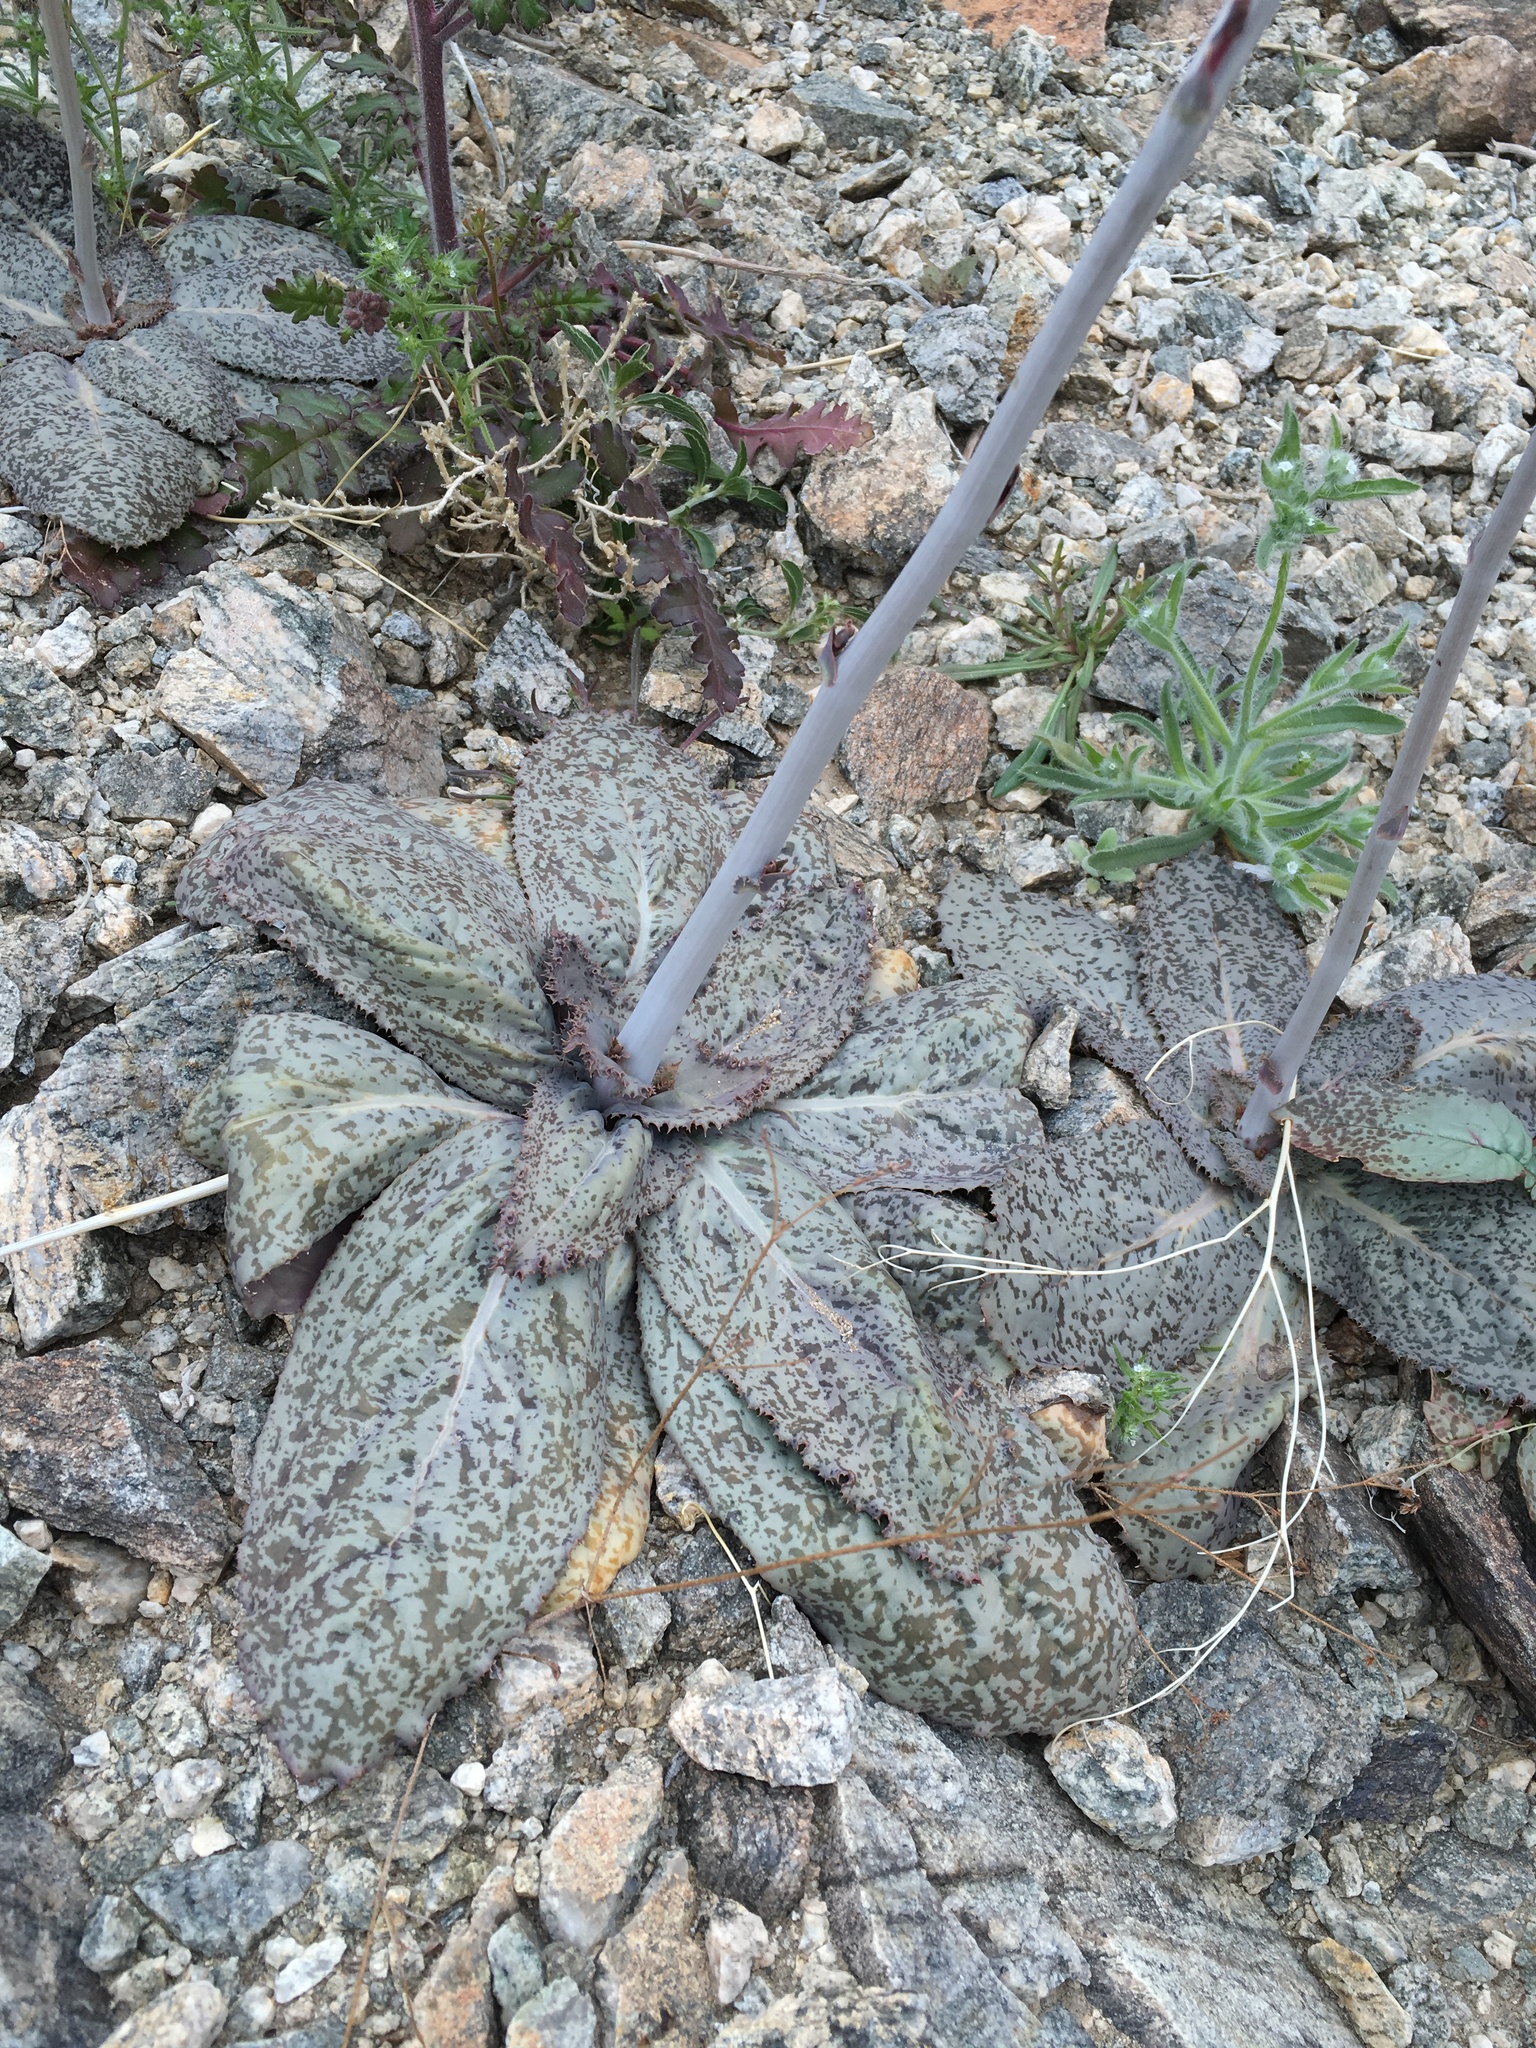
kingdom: Plantae
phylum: Tracheophyta
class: Magnoliopsida
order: Asterales
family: Asteraceae
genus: Atrichoseris
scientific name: Atrichoseris platyphylla
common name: Tobaccoweed
